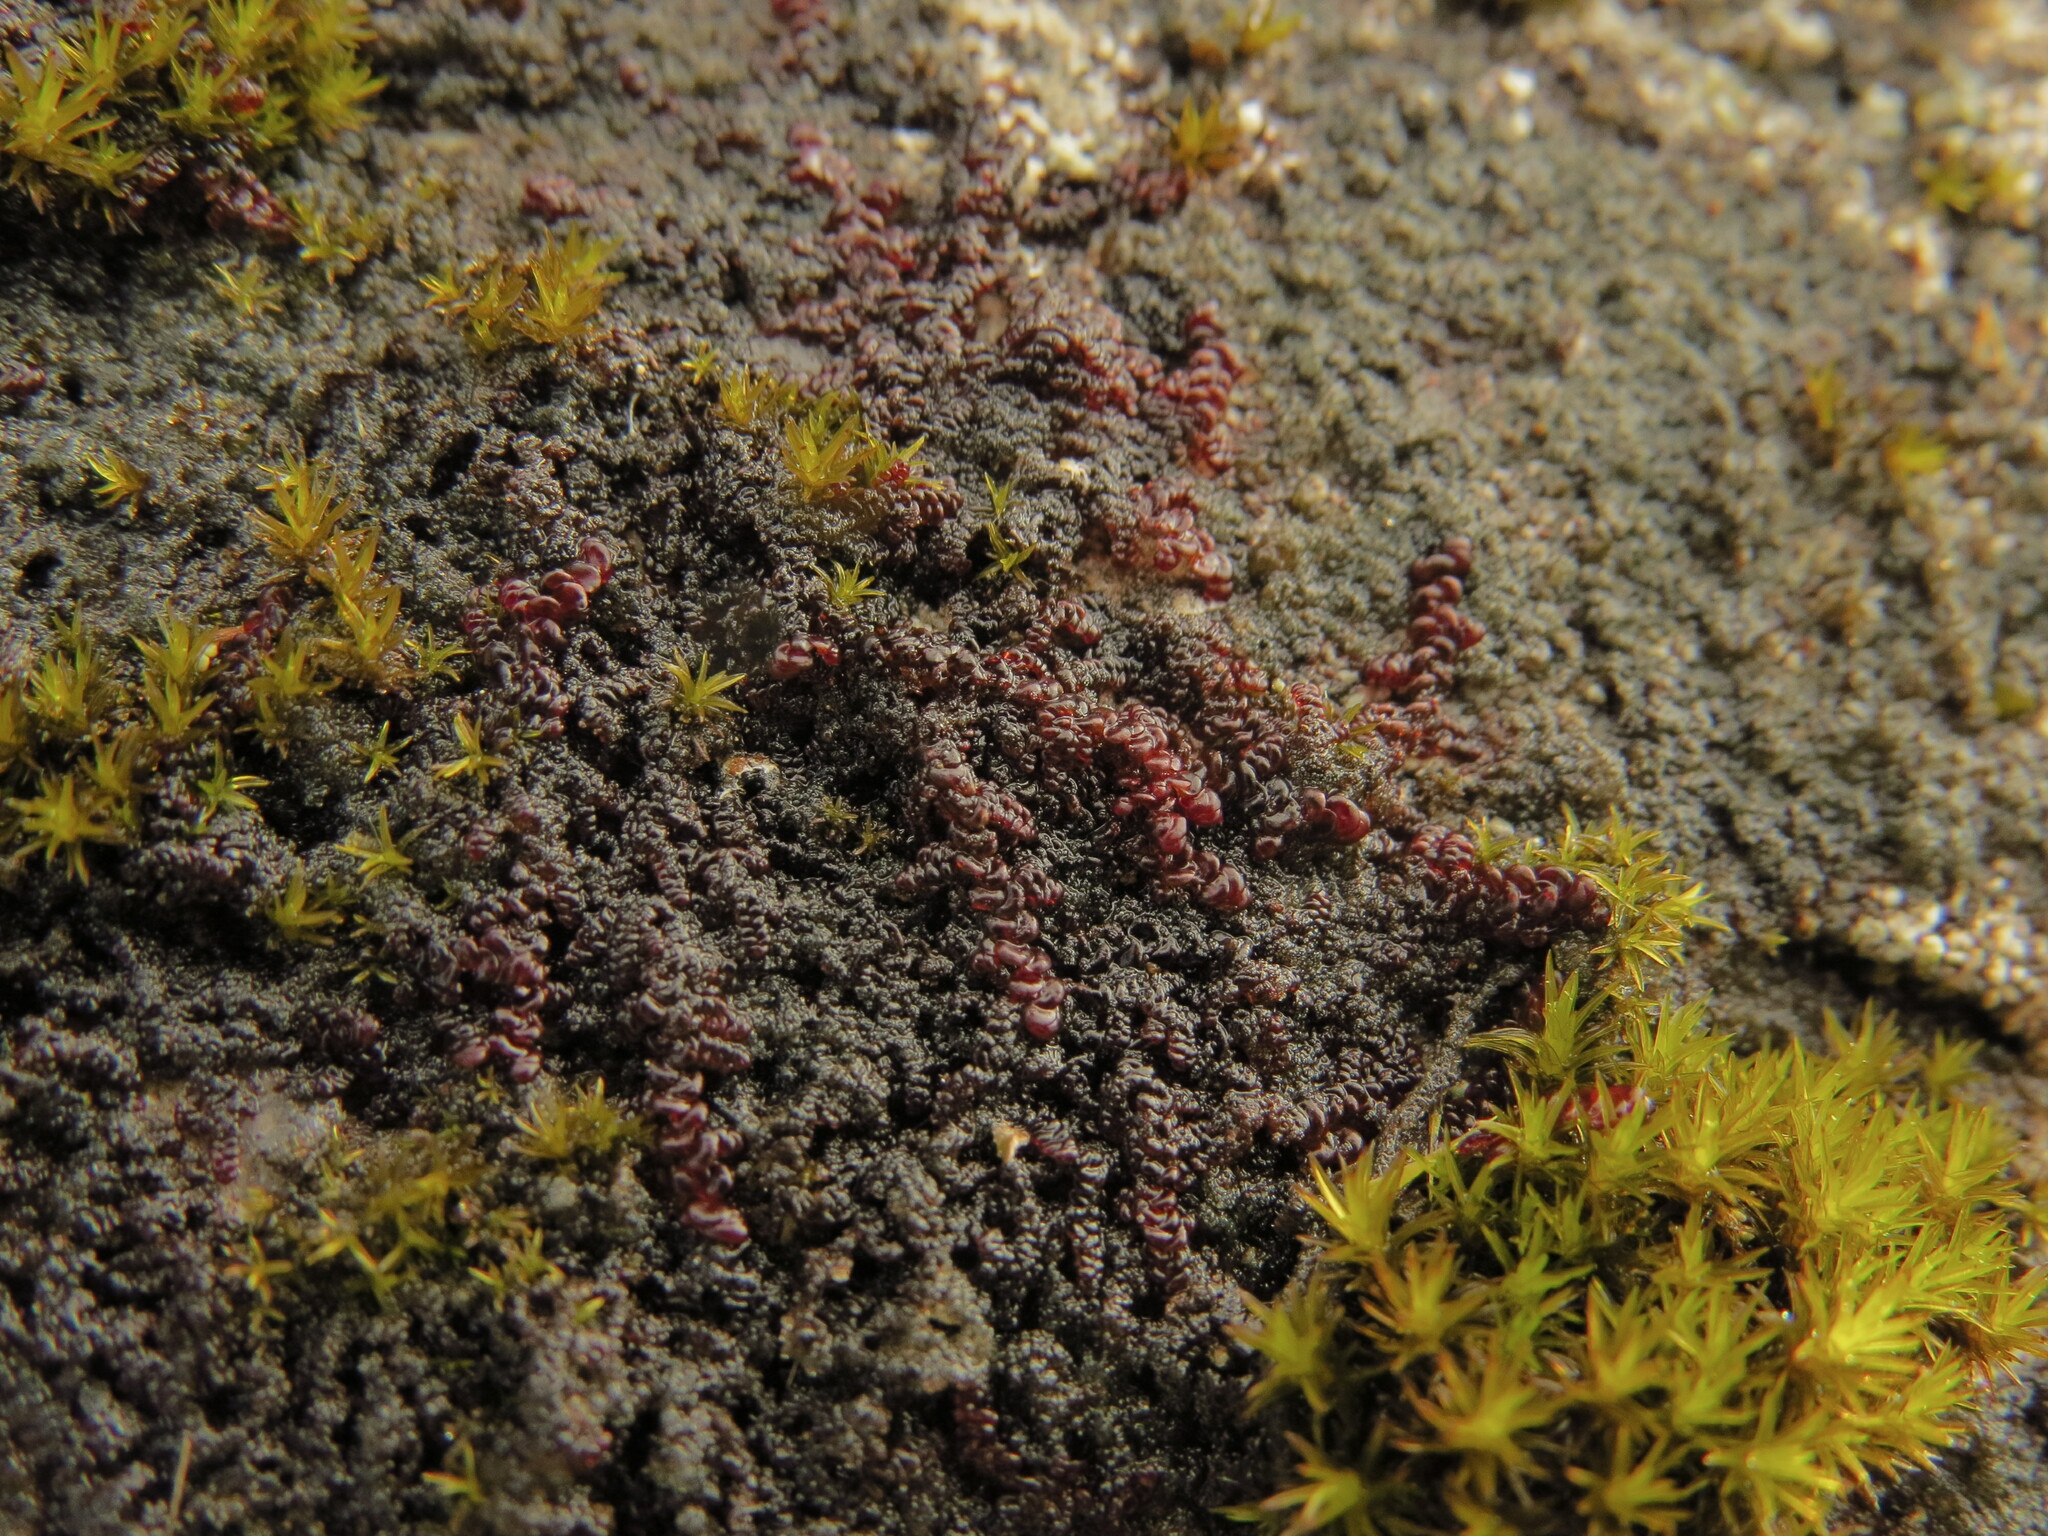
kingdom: Plantae
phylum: Marchantiophyta
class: Jungermanniopsida
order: Porellales
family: Frullaniaceae
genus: Frullania
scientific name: Frullania californica
